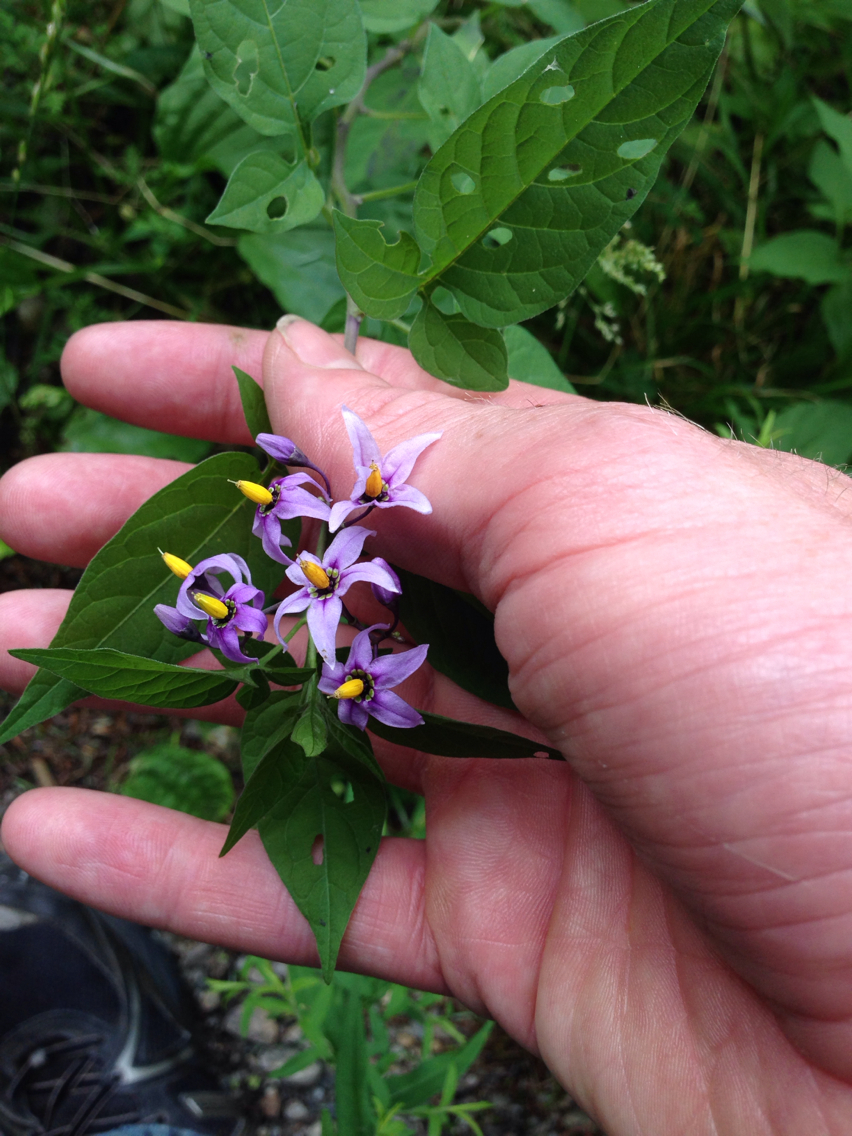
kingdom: Plantae
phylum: Tracheophyta
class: Magnoliopsida
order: Solanales
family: Solanaceae
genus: Solanum
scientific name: Solanum dulcamara
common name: Climbing nightshade
